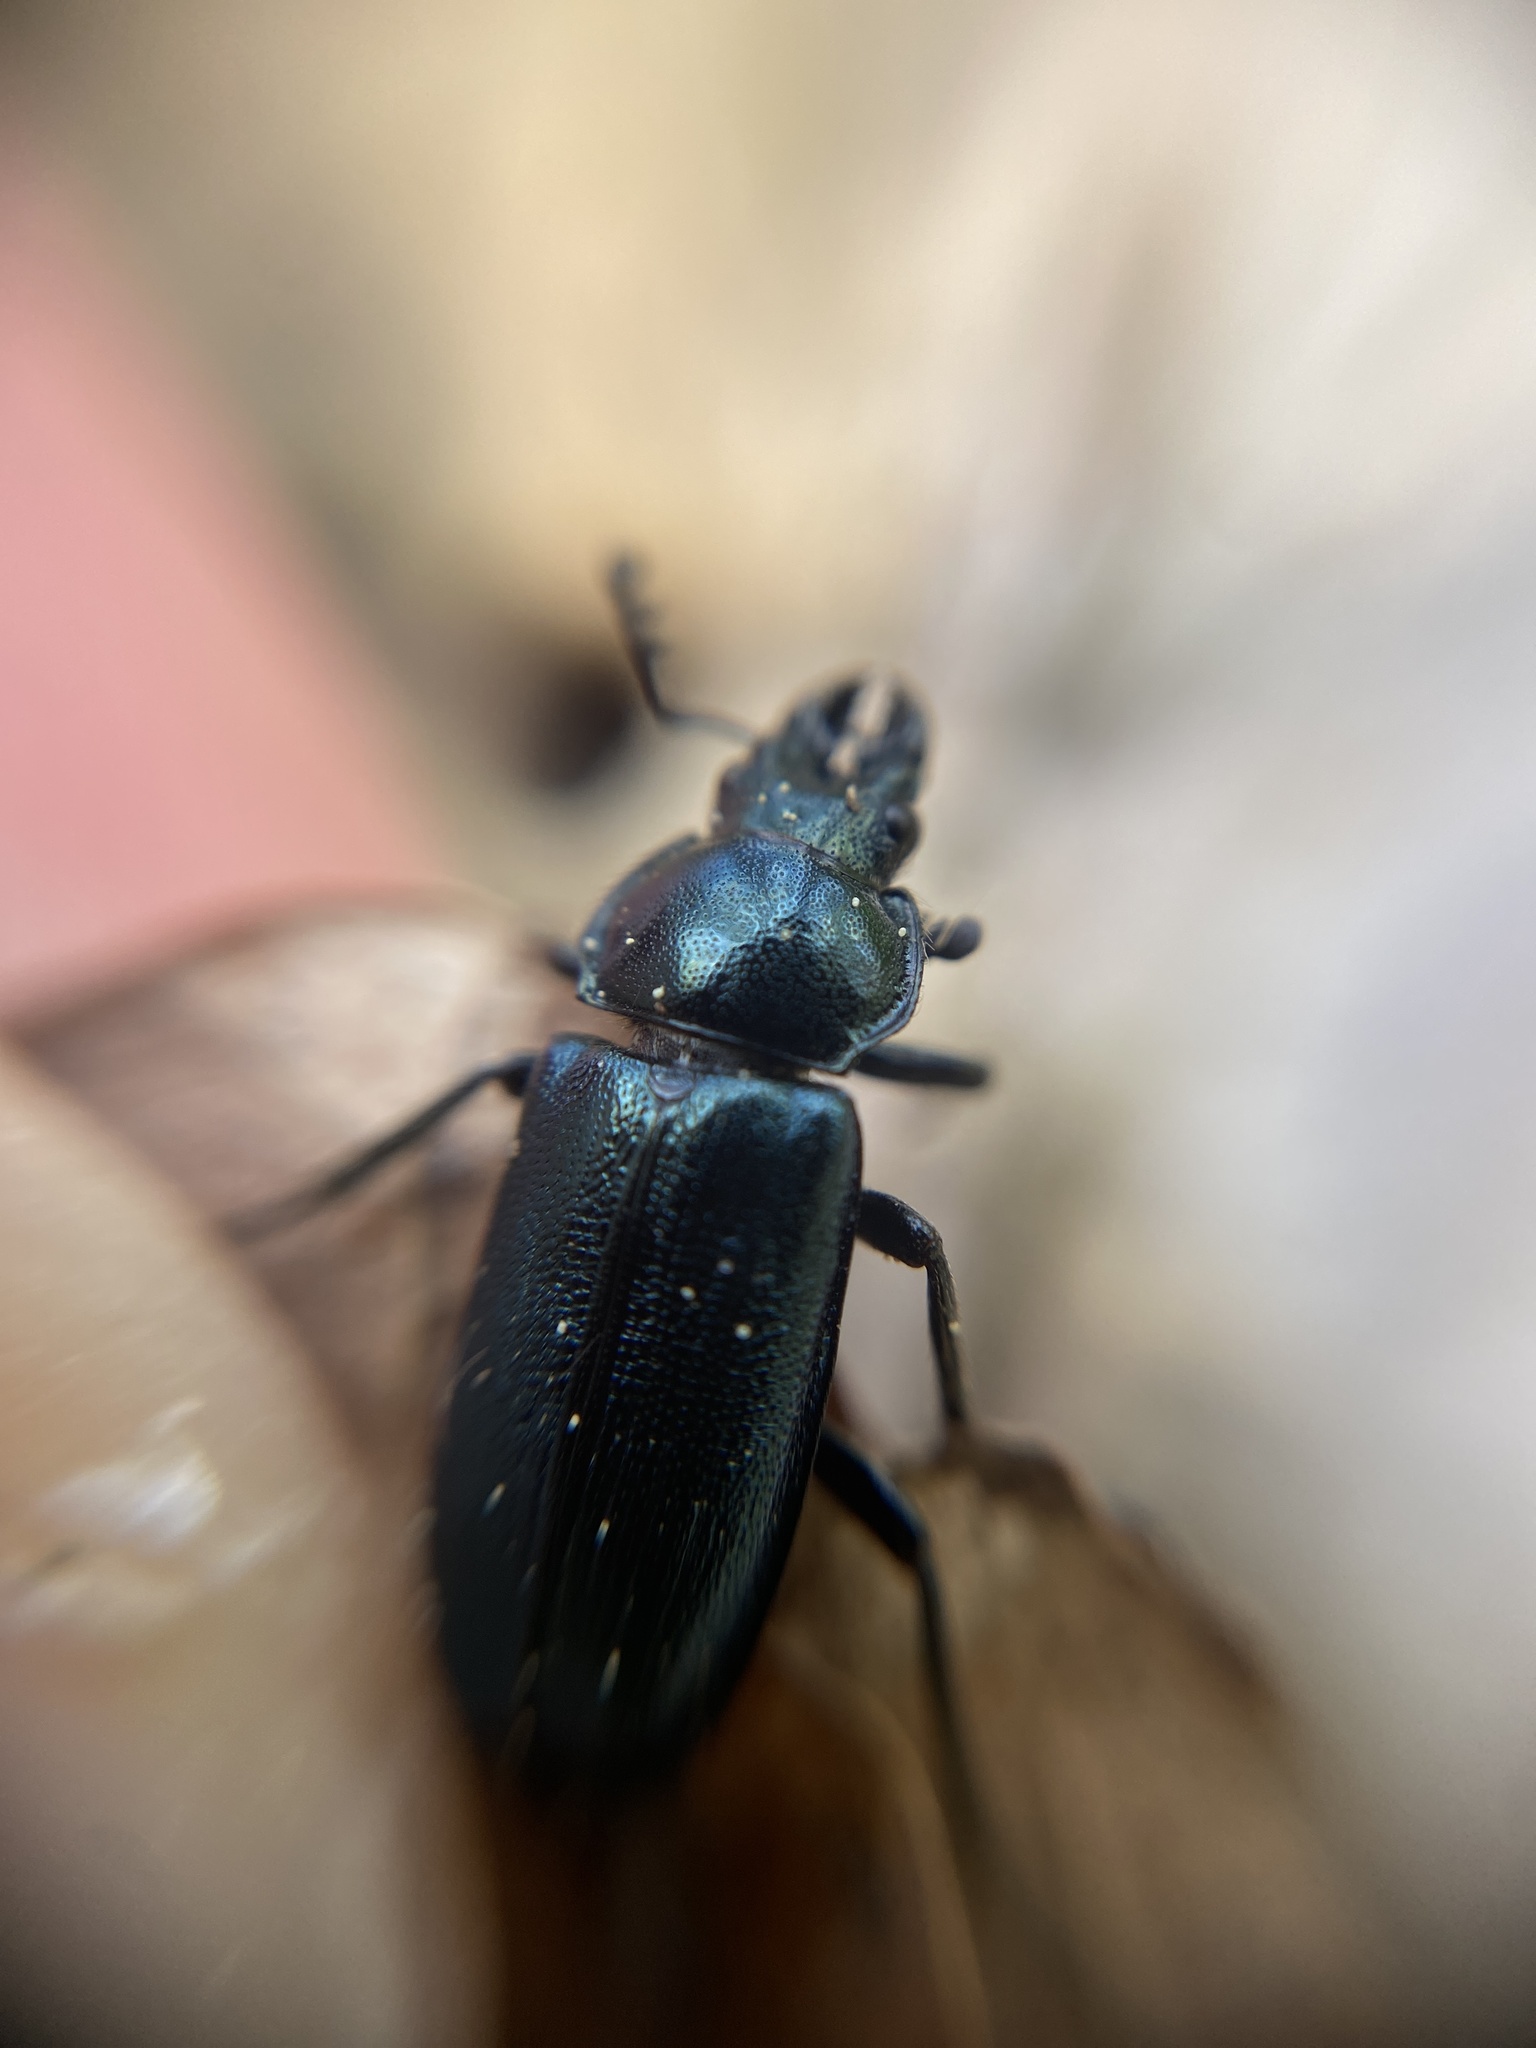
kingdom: Animalia
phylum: Arthropoda
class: Insecta
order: Coleoptera
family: Lucanidae
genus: Platycerus
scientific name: Platycerus caraboides
